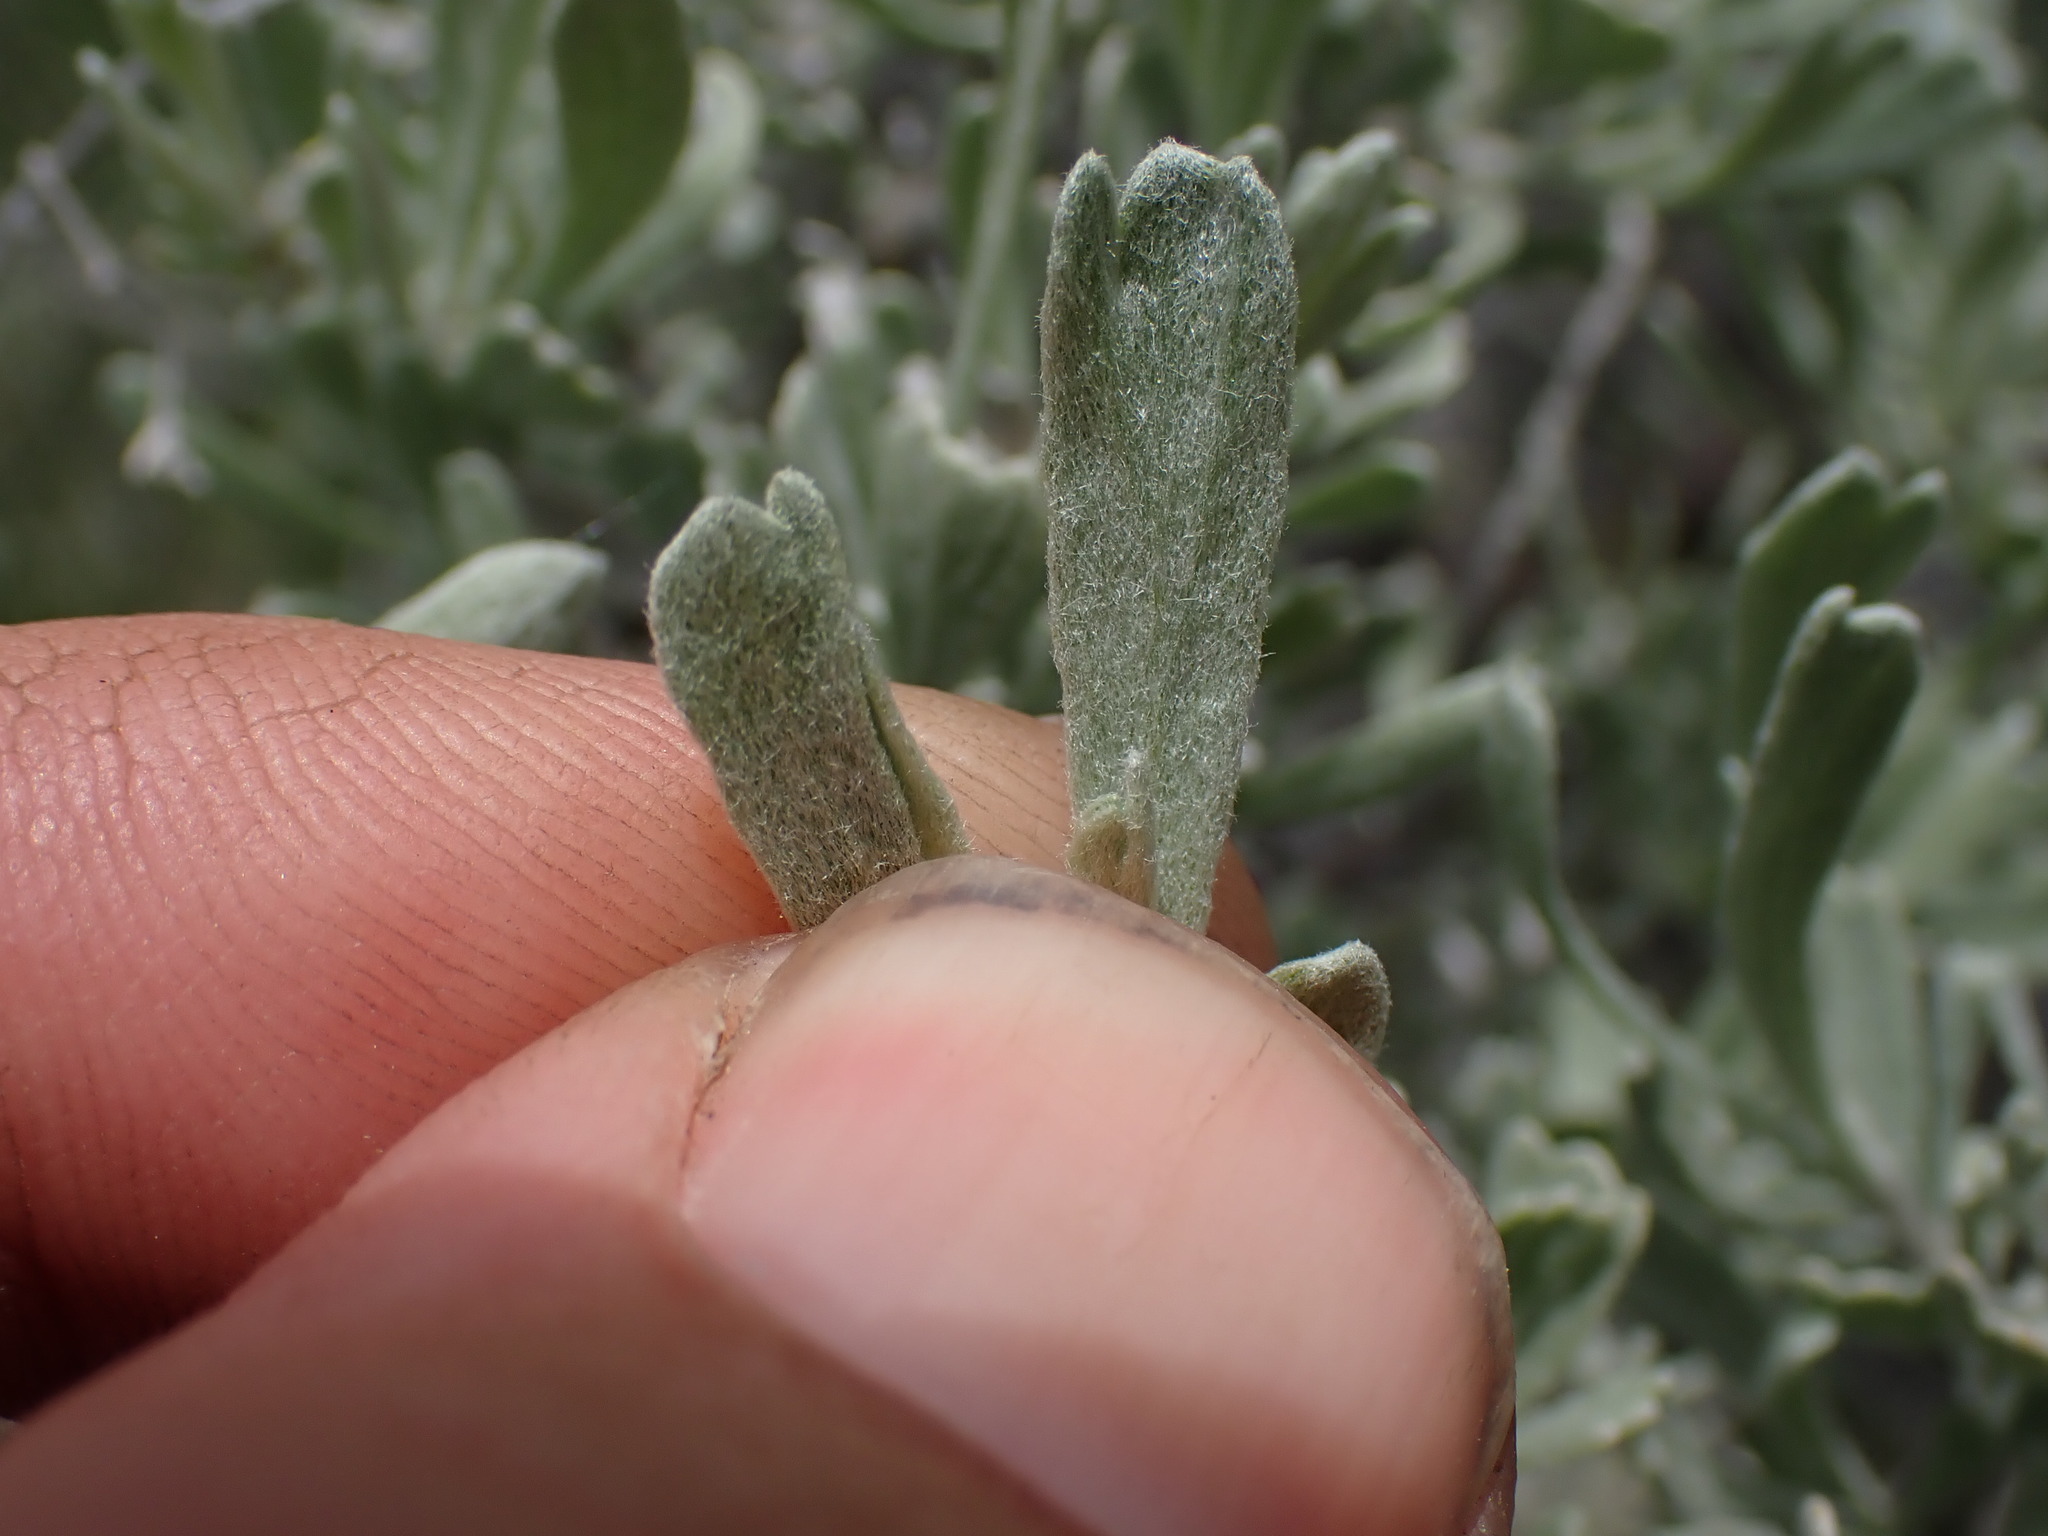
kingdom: Plantae
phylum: Tracheophyta
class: Magnoliopsida
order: Asterales
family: Asteraceae
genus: Artemisia
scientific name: Artemisia tridentata
